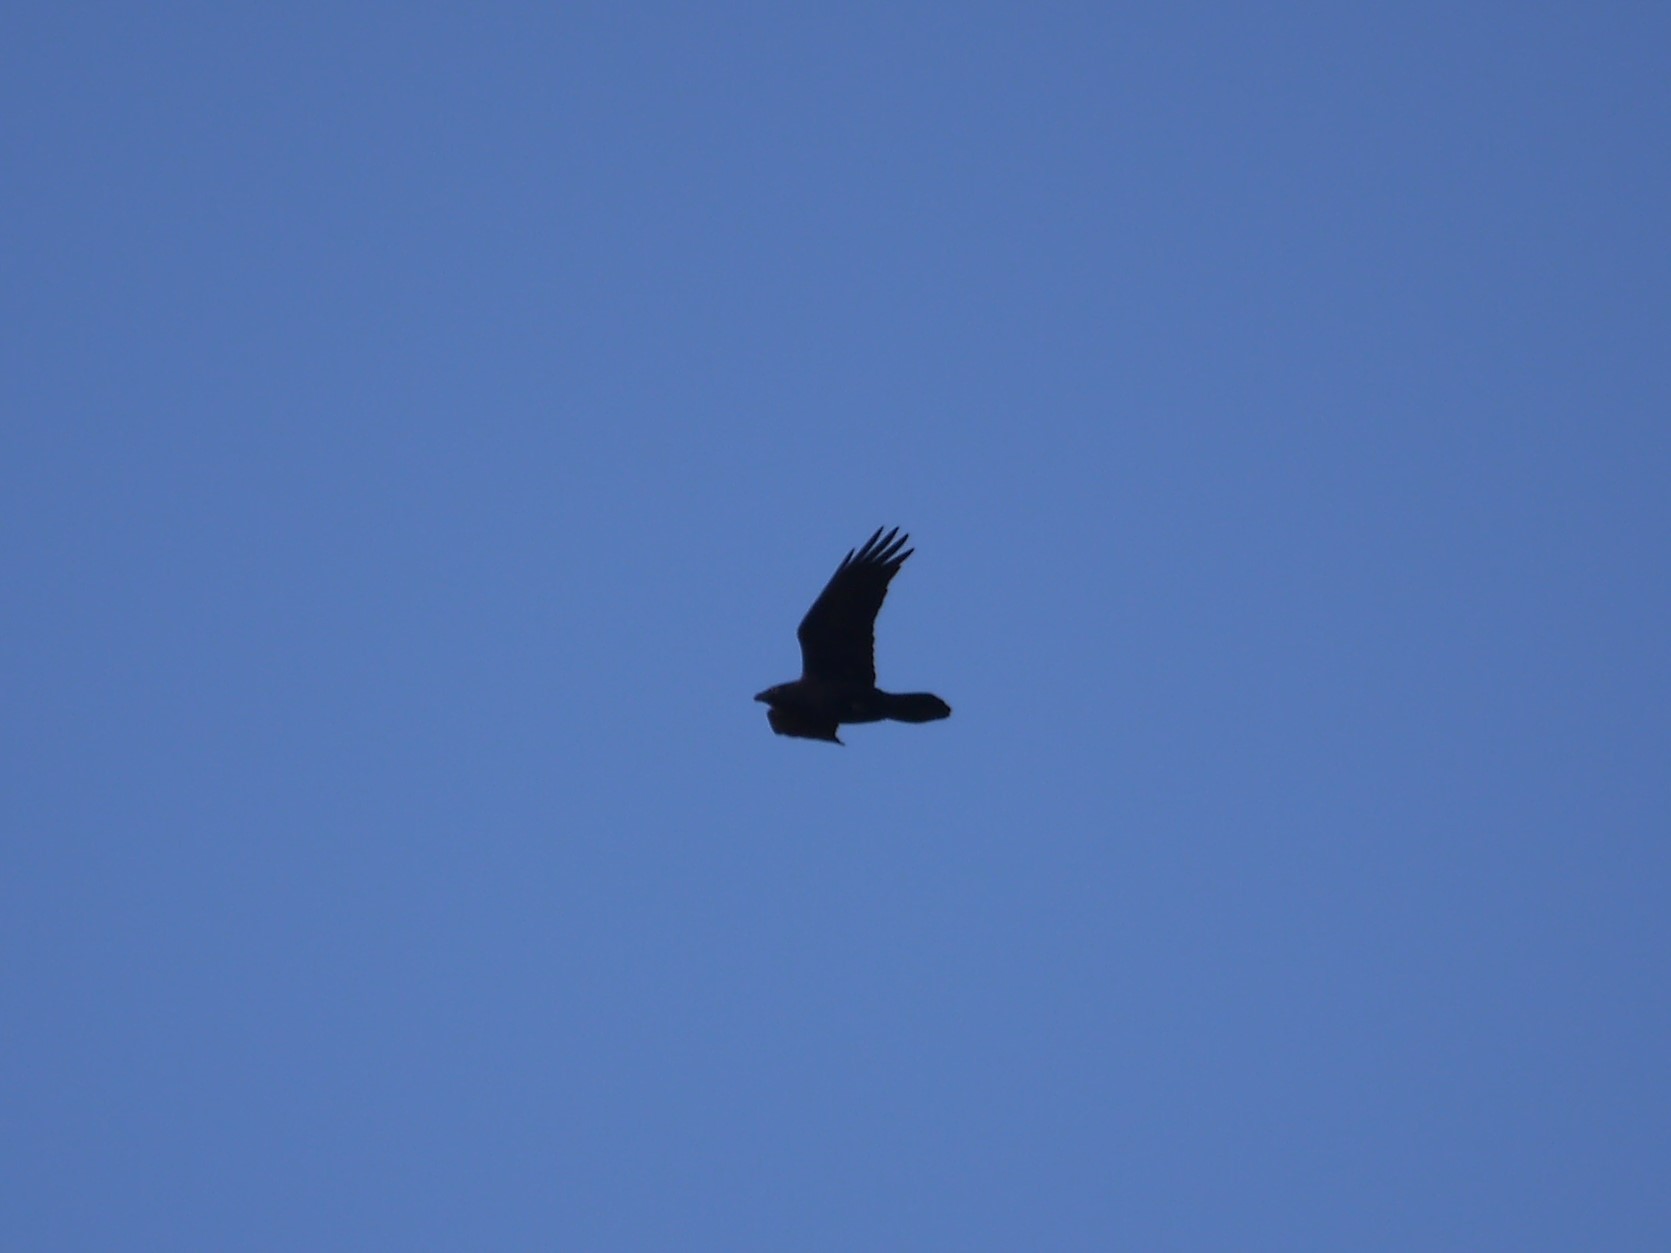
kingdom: Animalia
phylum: Chordata
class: Aves
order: Passeriformes
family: Corvidae
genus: Corvus
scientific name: Corvus corax
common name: Common raven
